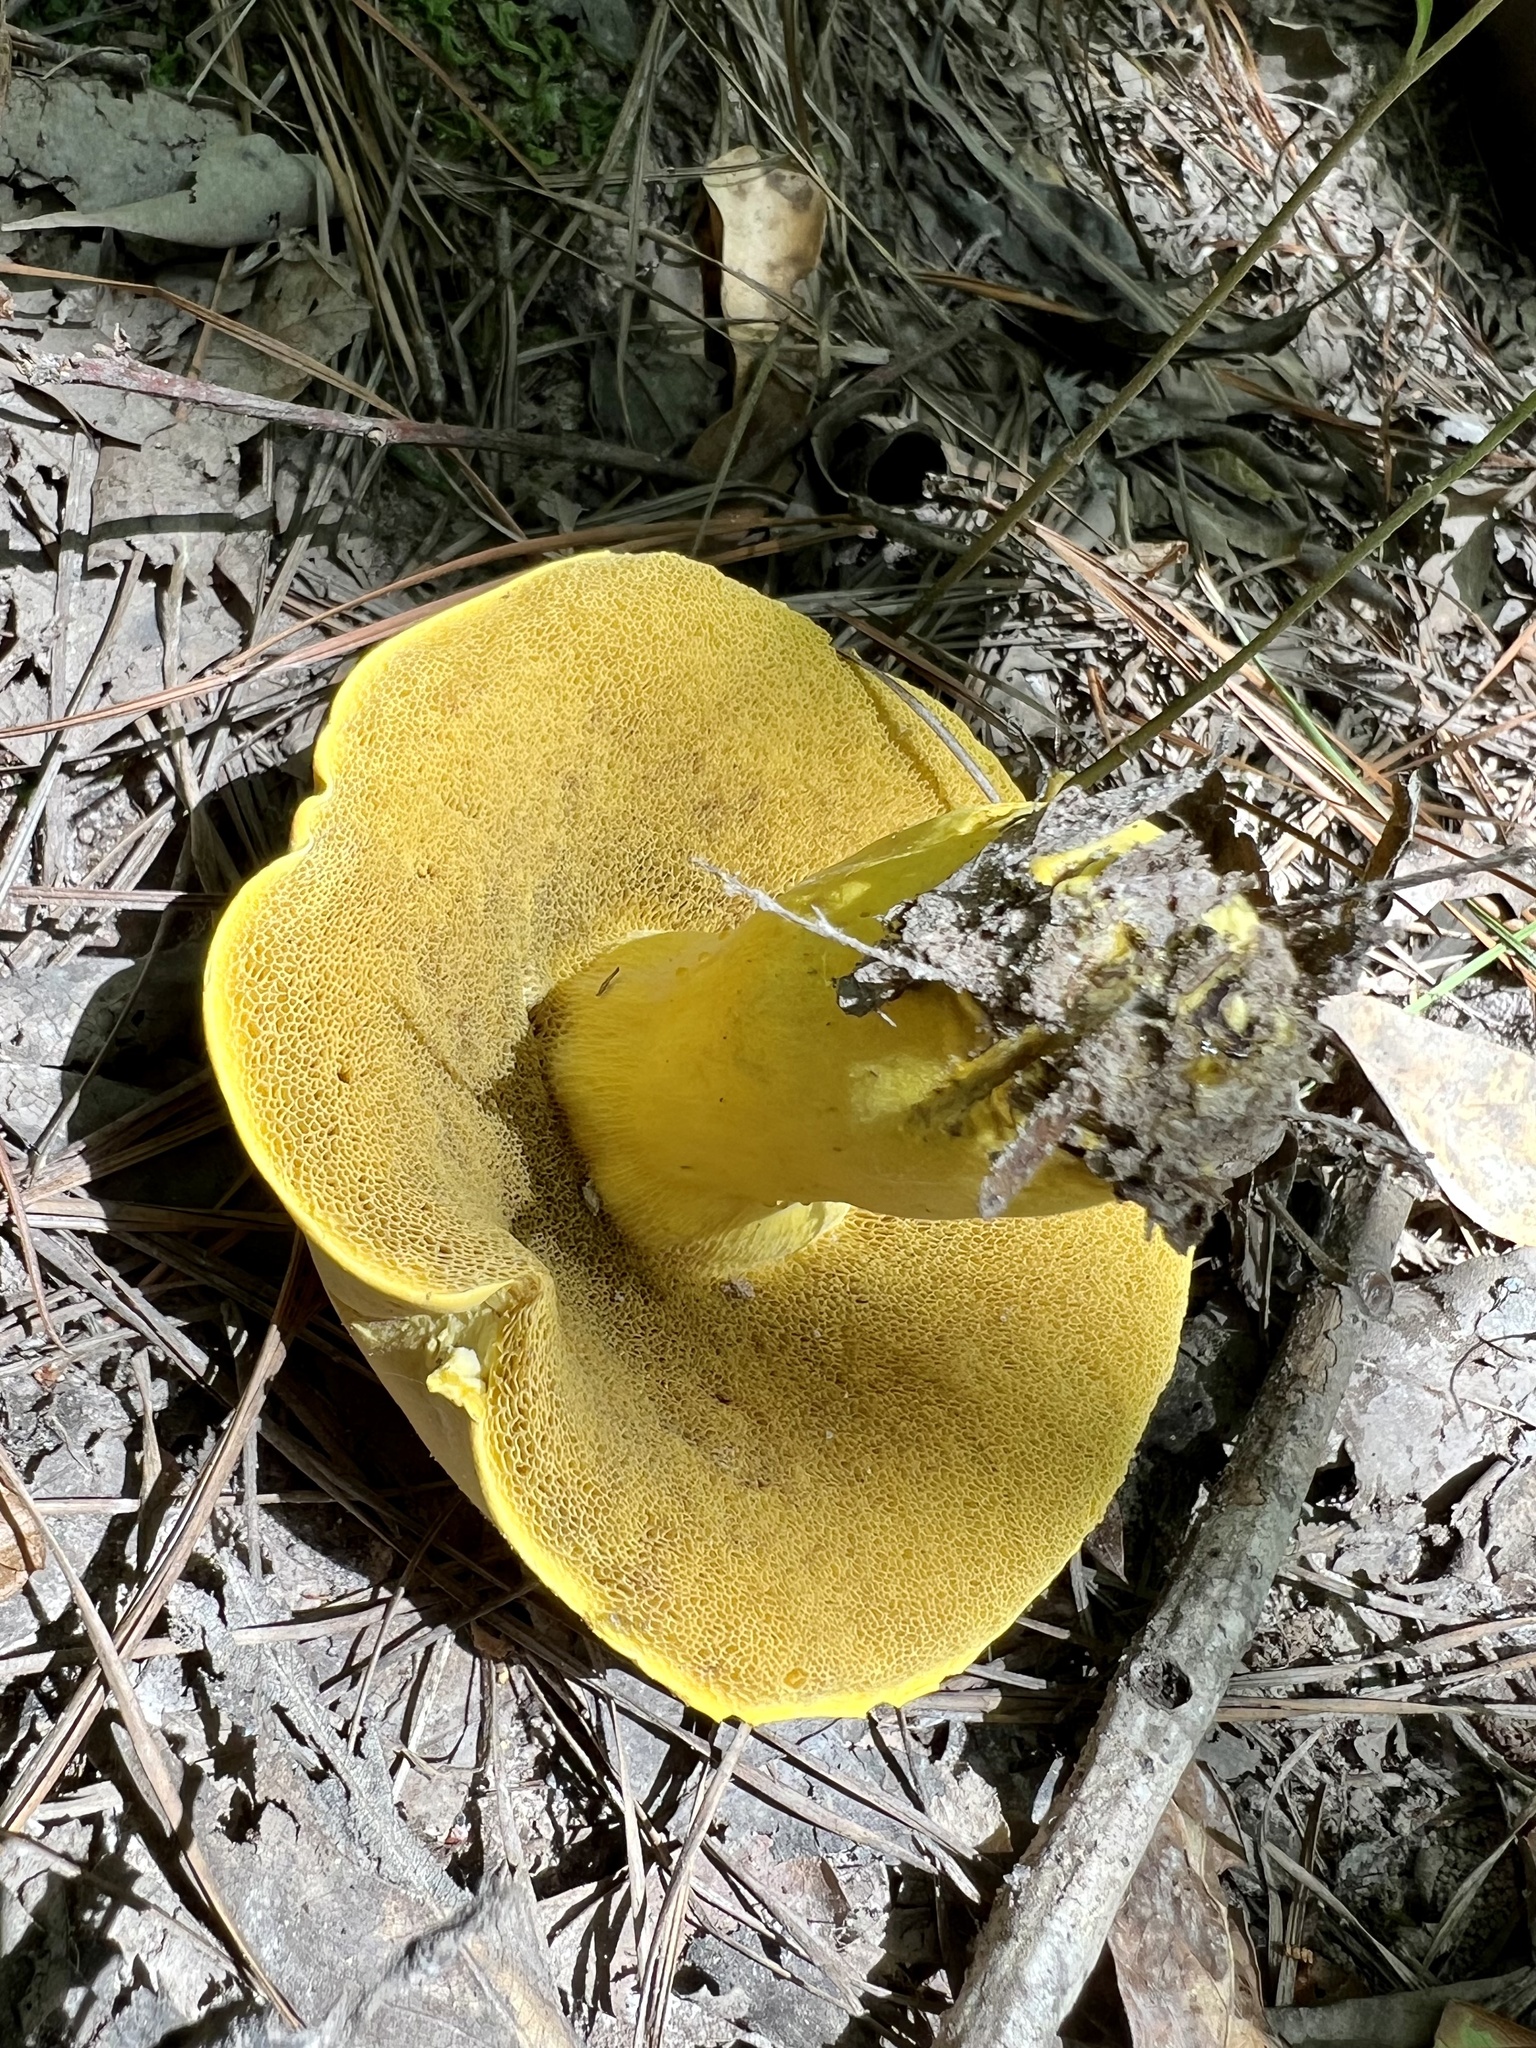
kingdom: Fungi
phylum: Basidiomycota
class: Agaricomycetes
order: Boletales
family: Boletaceae
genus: Boletus
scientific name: Boletus auripes
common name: Butter-foot bolete
